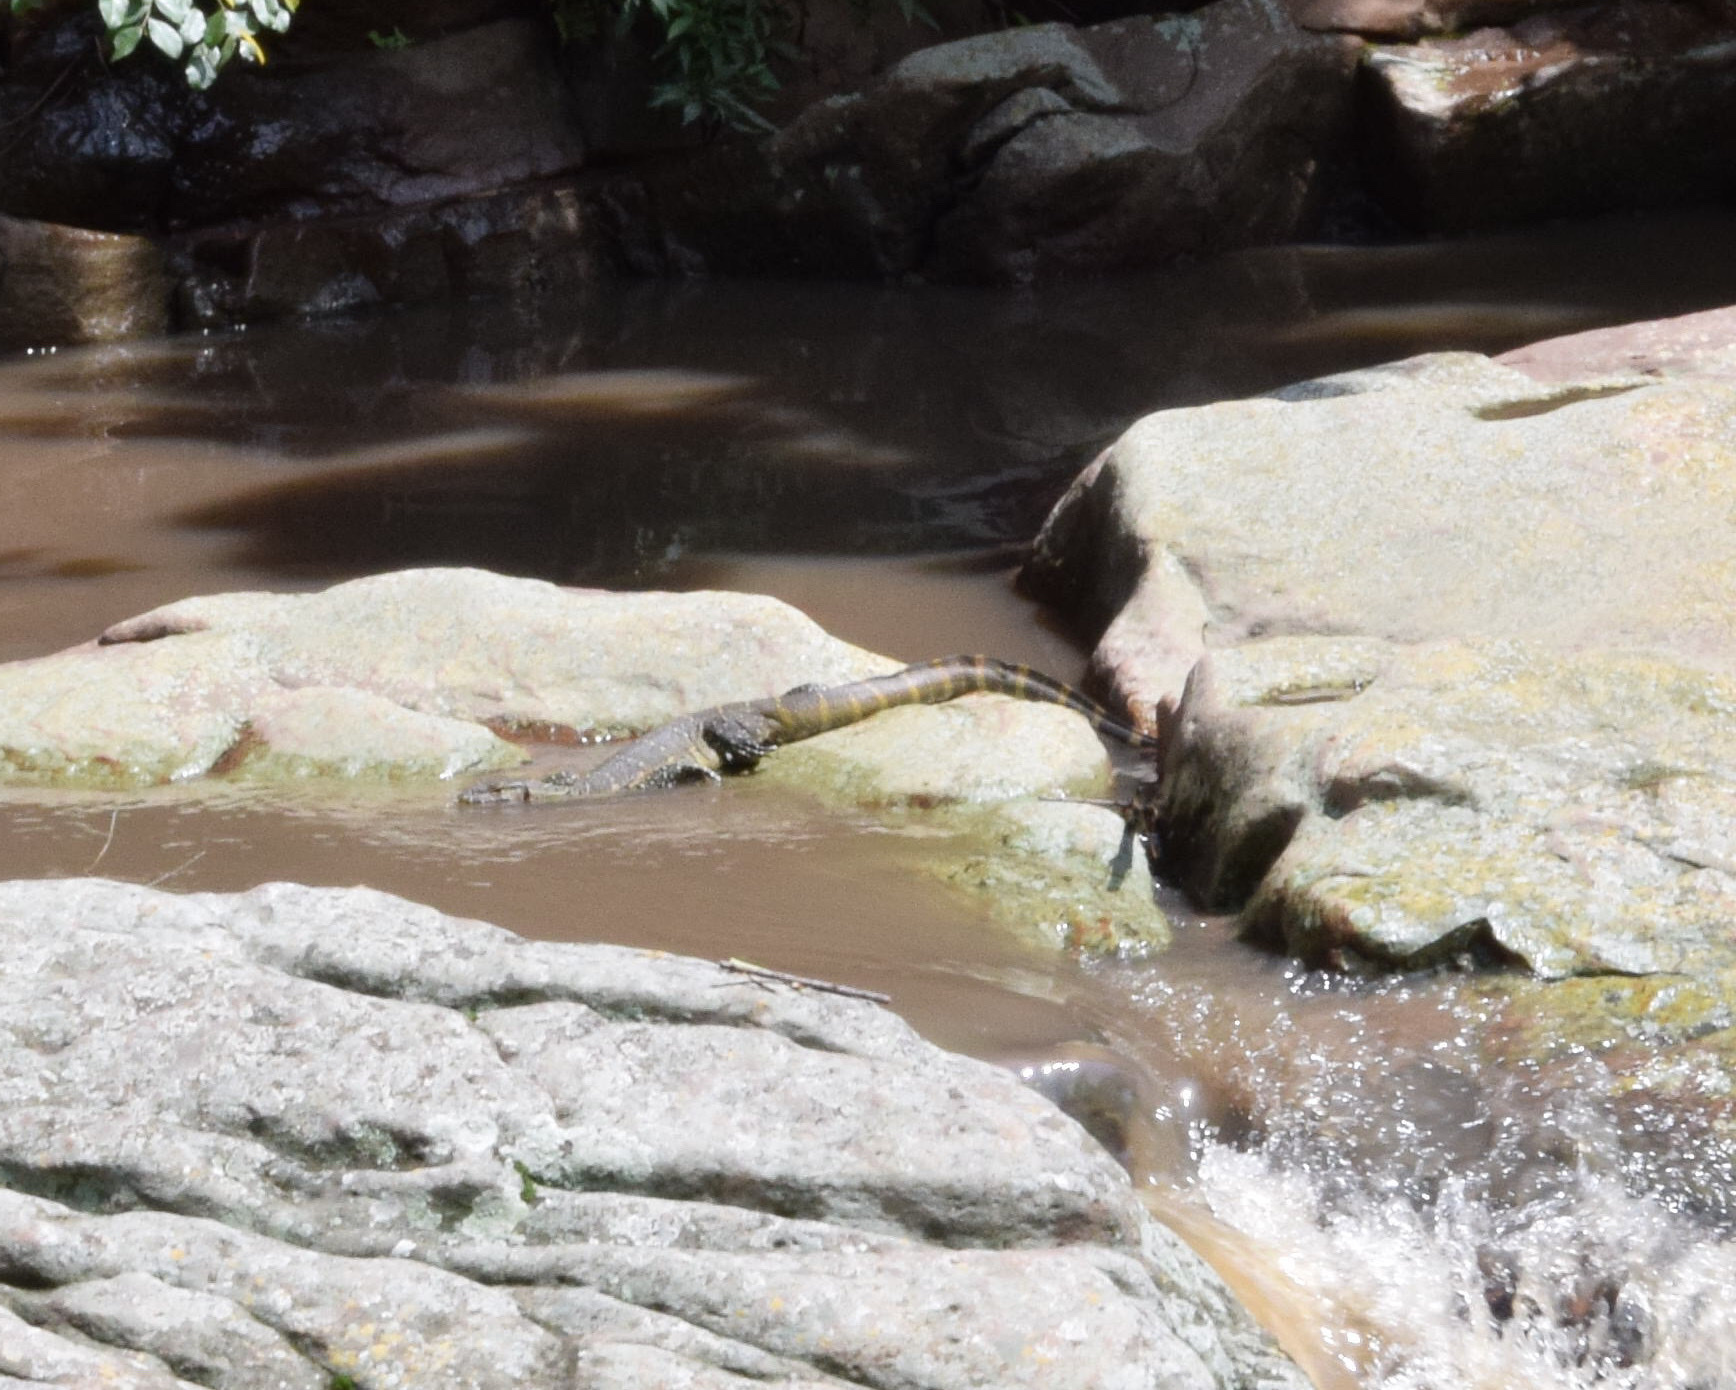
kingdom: Animalia
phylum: Chordata
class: Squamata
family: Varanidae
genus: Varanus
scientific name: Varanus niloticus
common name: Nile monitor
